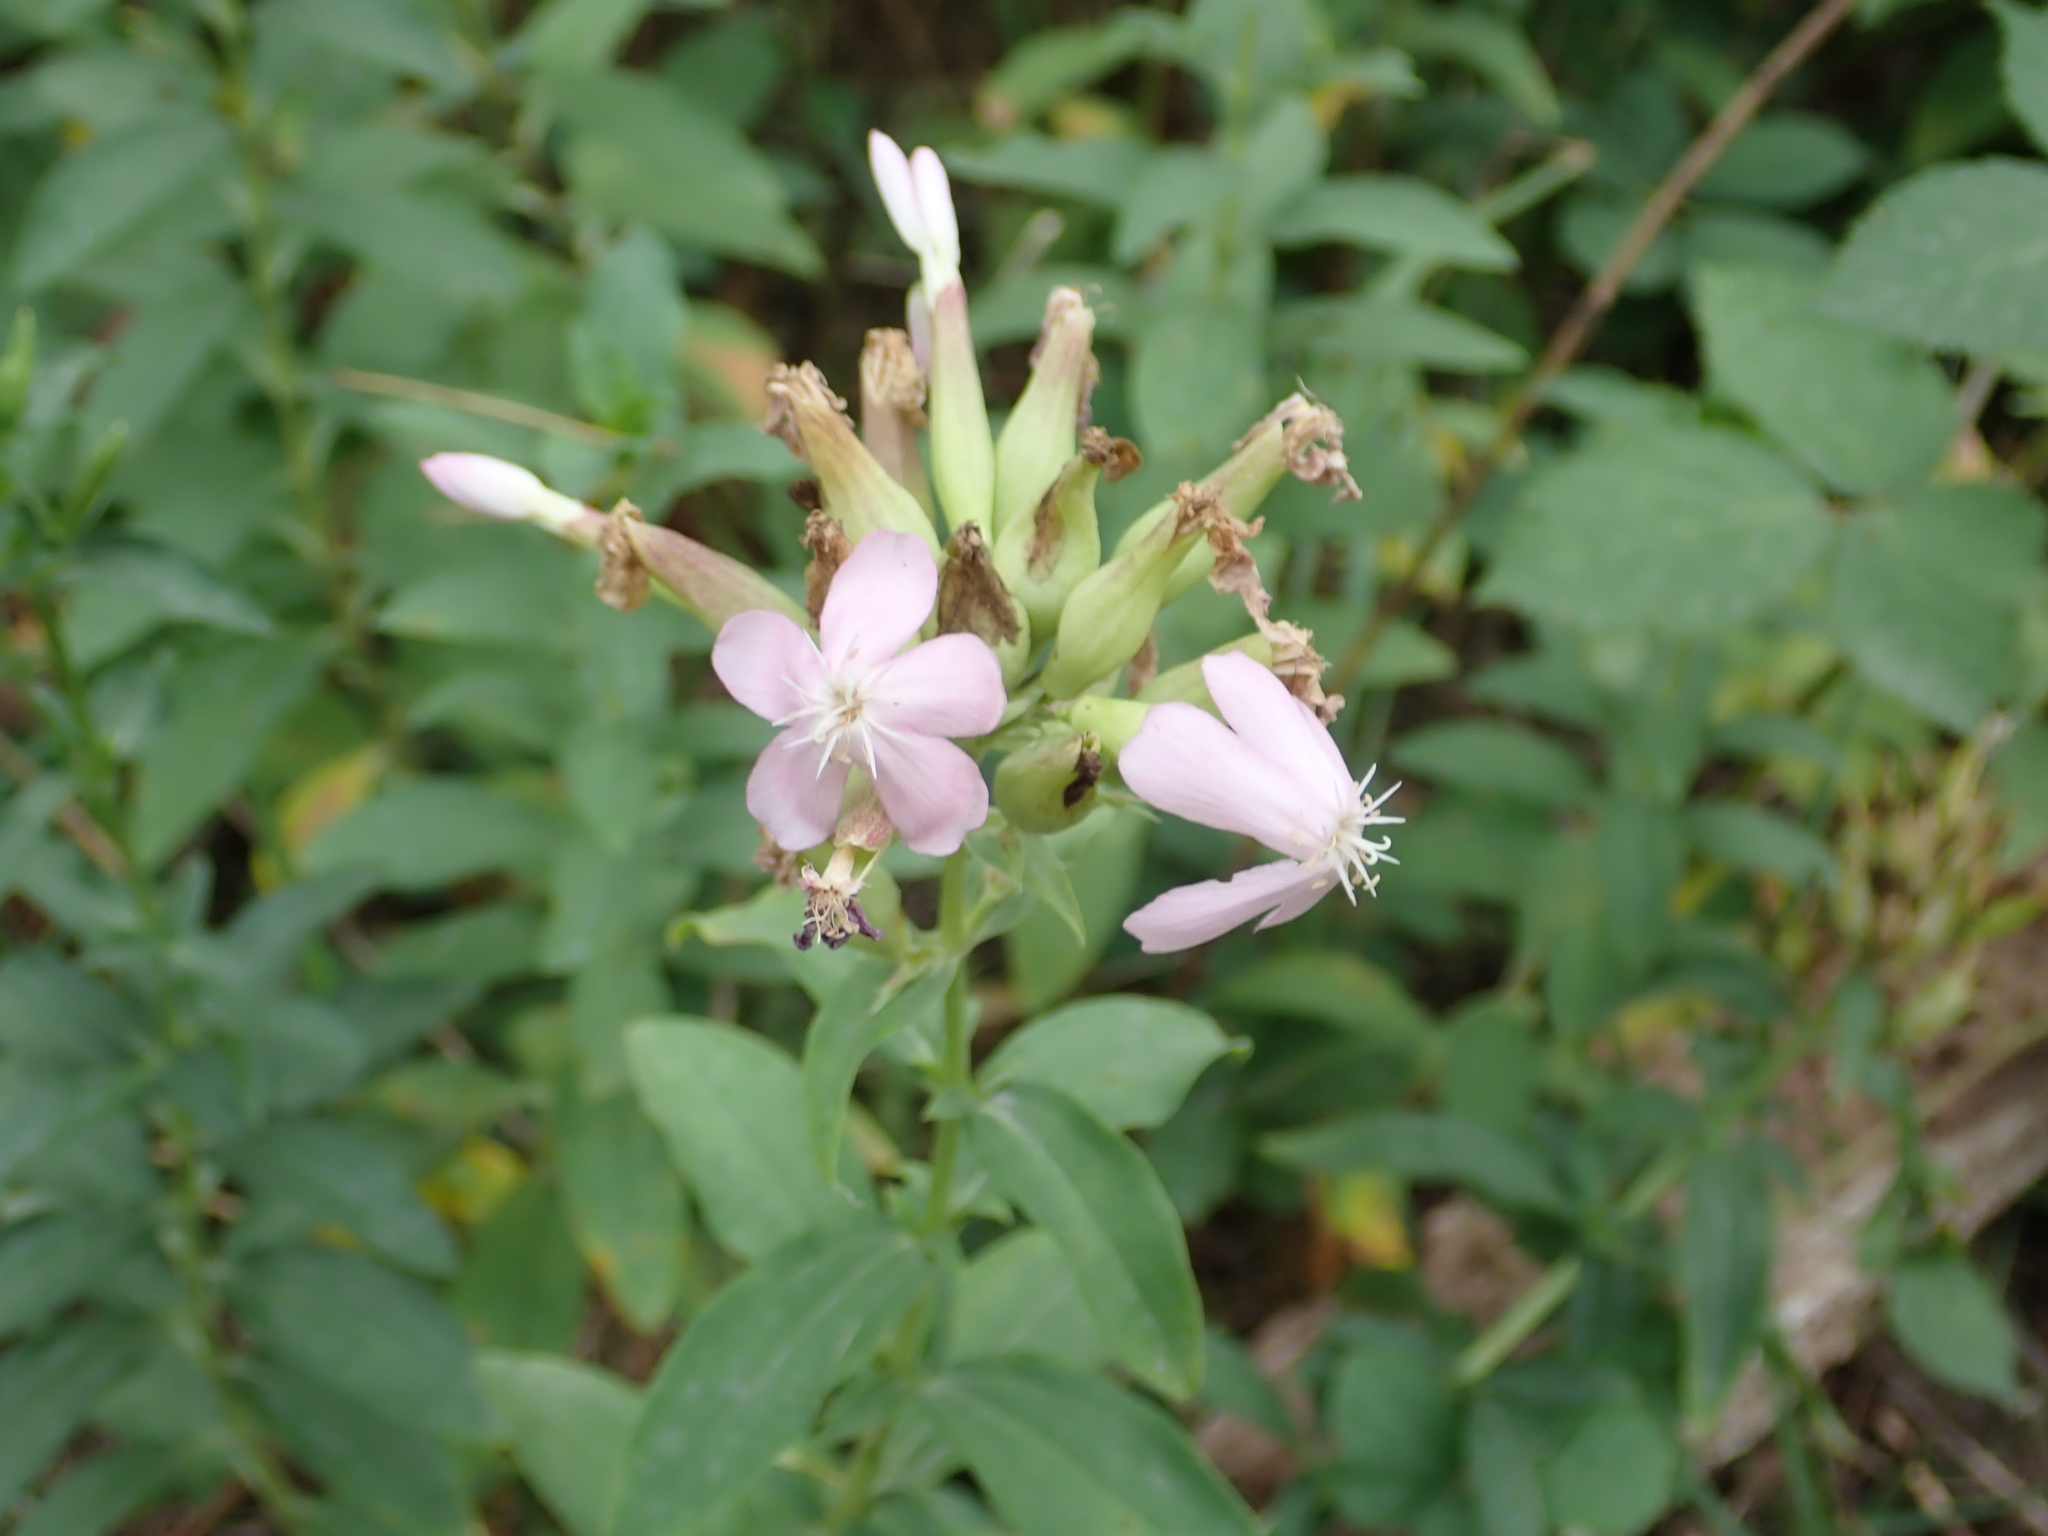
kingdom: Plantae
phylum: Tracheophyta
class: Magnoliopsida
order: Caryophyllales
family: Caryophyllaceae
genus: Saponaria
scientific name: Saponaria officinalis
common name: Soapwort
